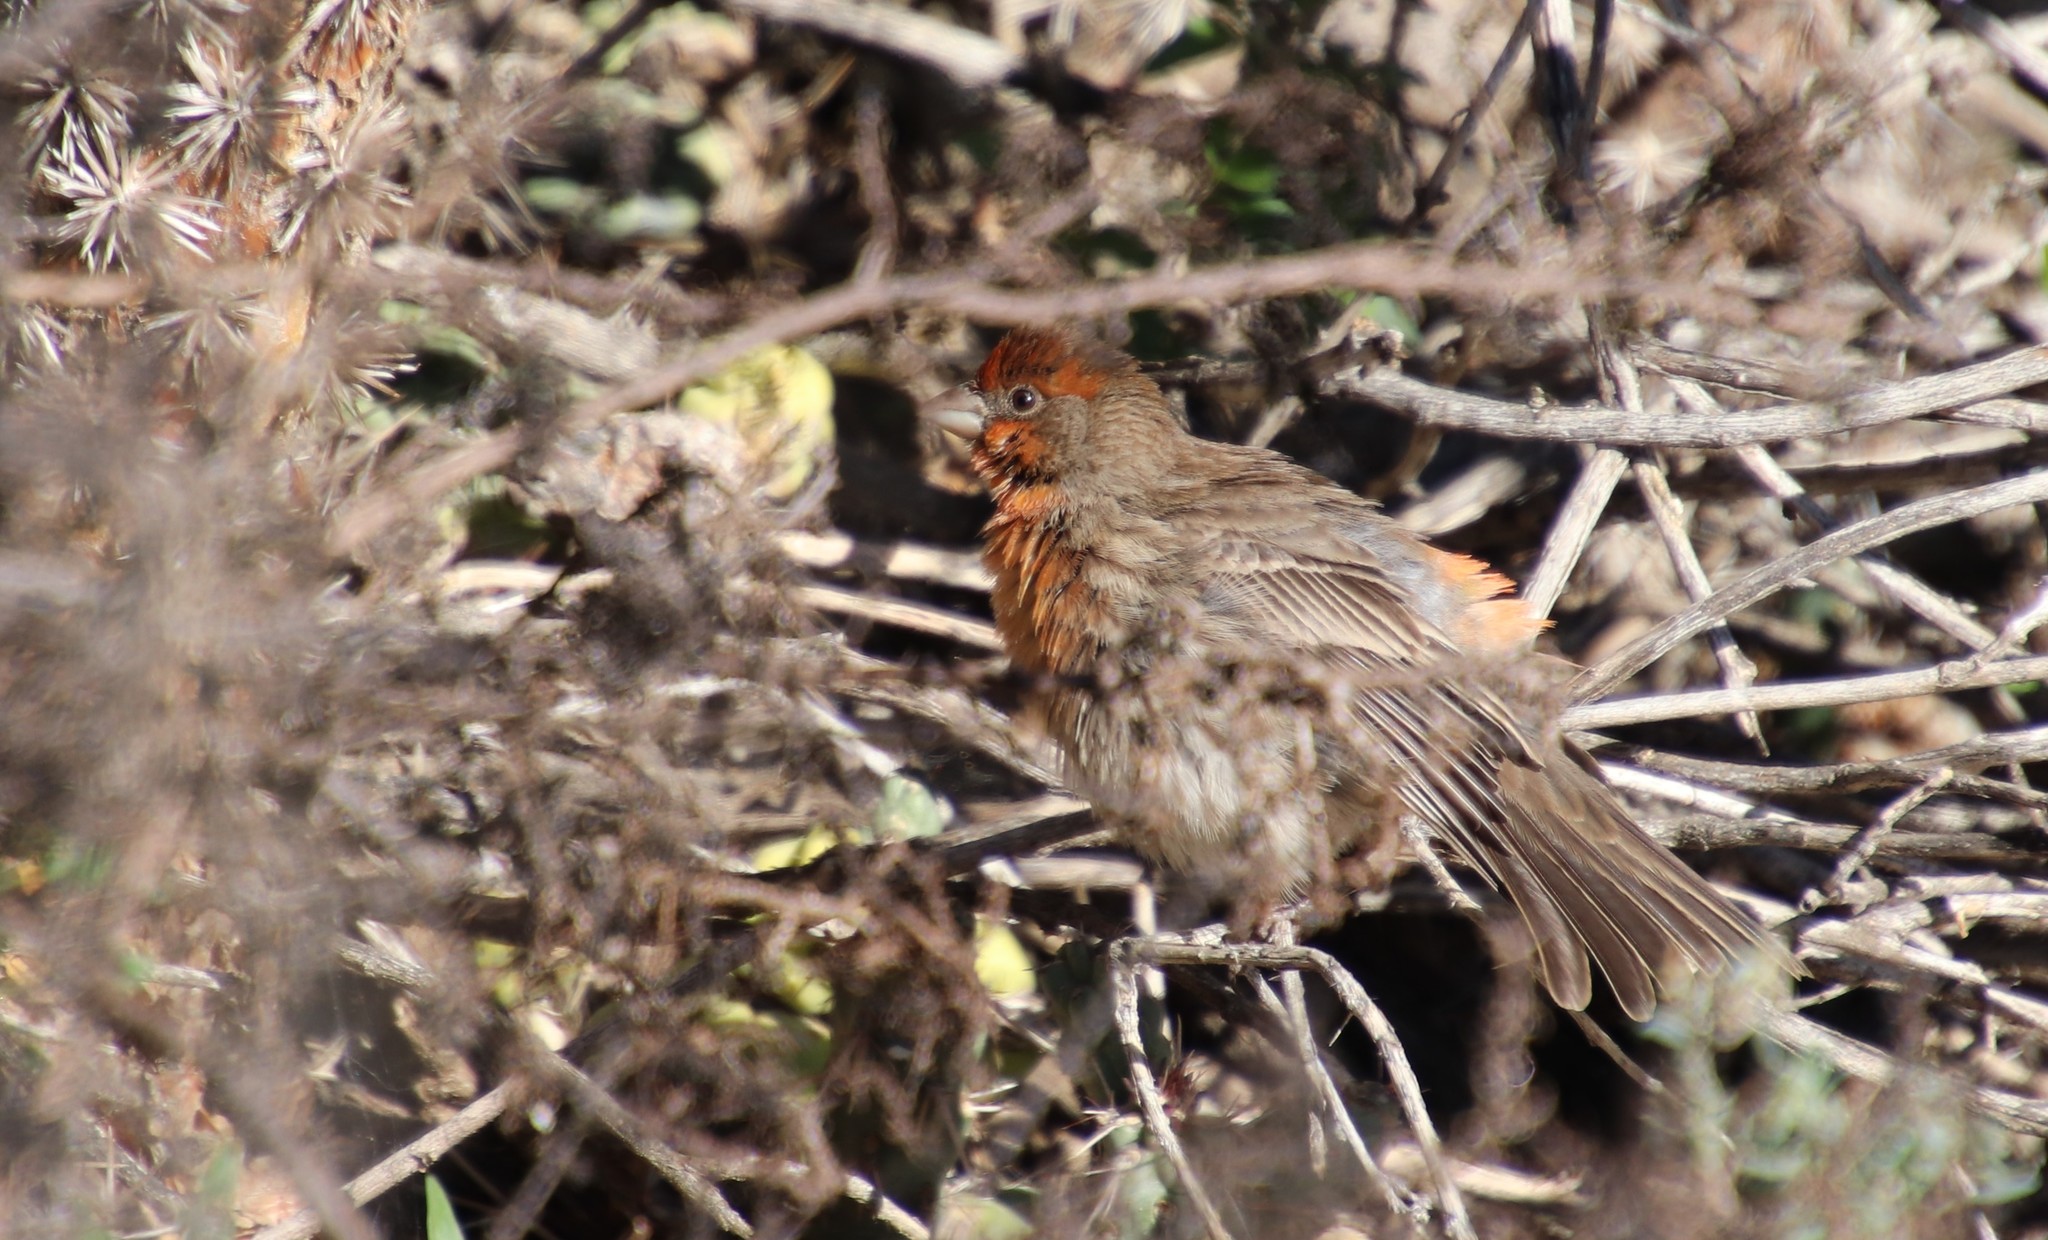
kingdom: Animalia
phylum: Chordata
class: Aves
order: Passeriformes
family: Fringillidae
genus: Haemorhous
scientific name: Haemorhous mexicanus
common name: House finch
